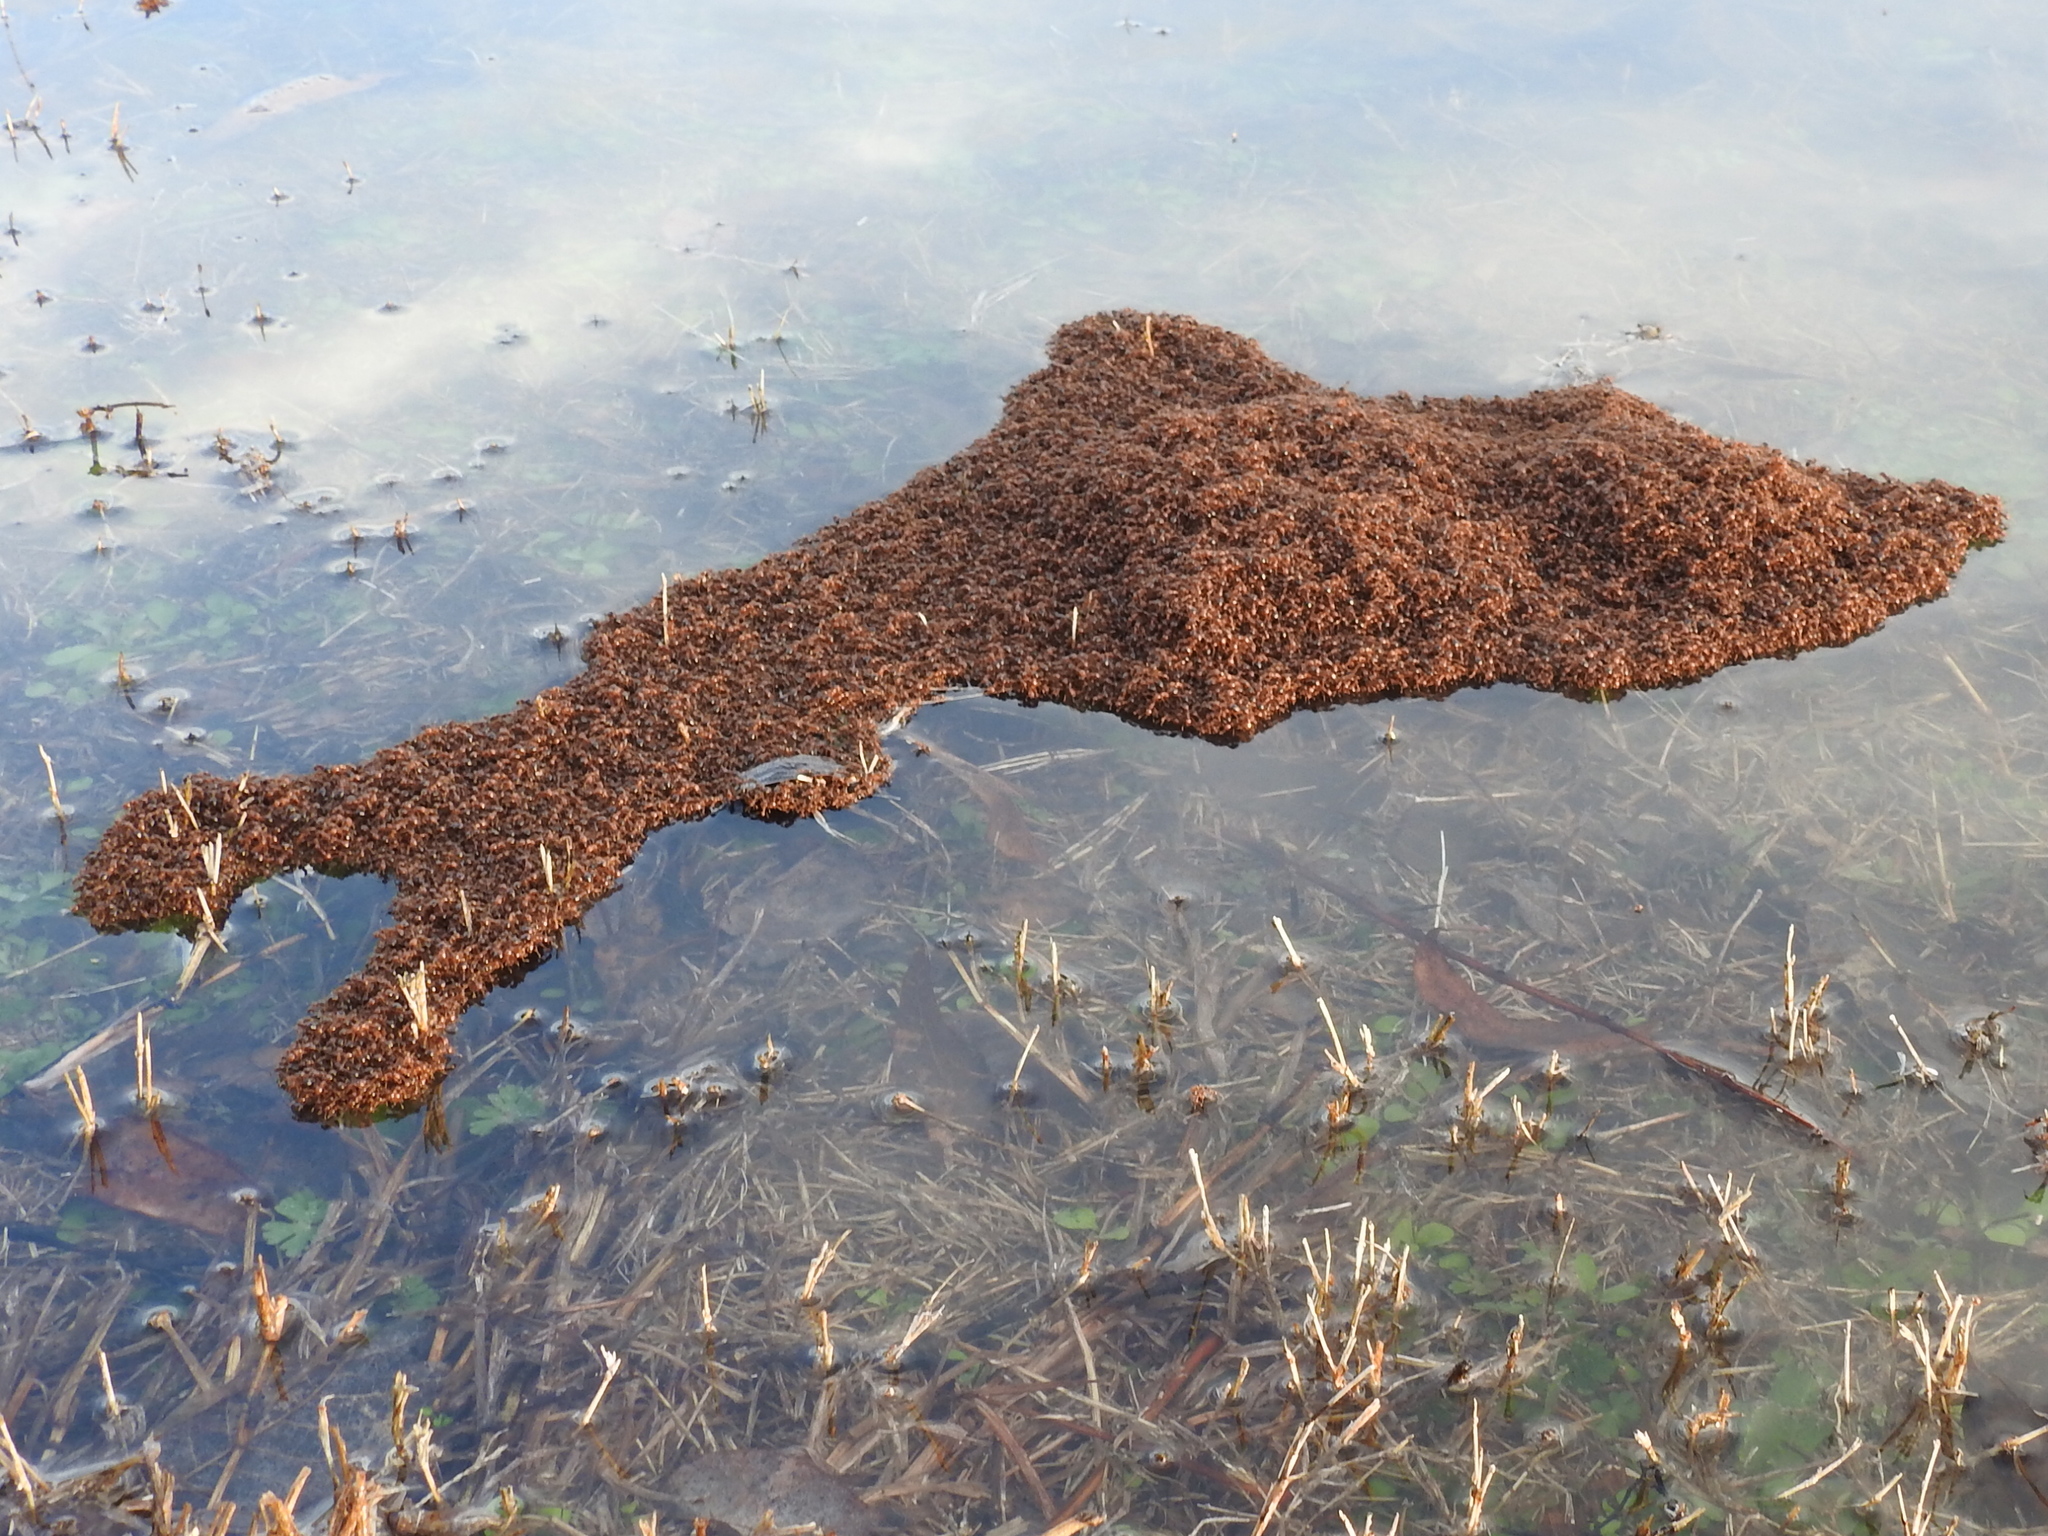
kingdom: Animalia
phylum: Arthropoda
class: Insecta
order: Hymenoptera
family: Formicidae
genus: Solenopsis
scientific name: Solenopsis invicta
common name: Red imported fire ant
